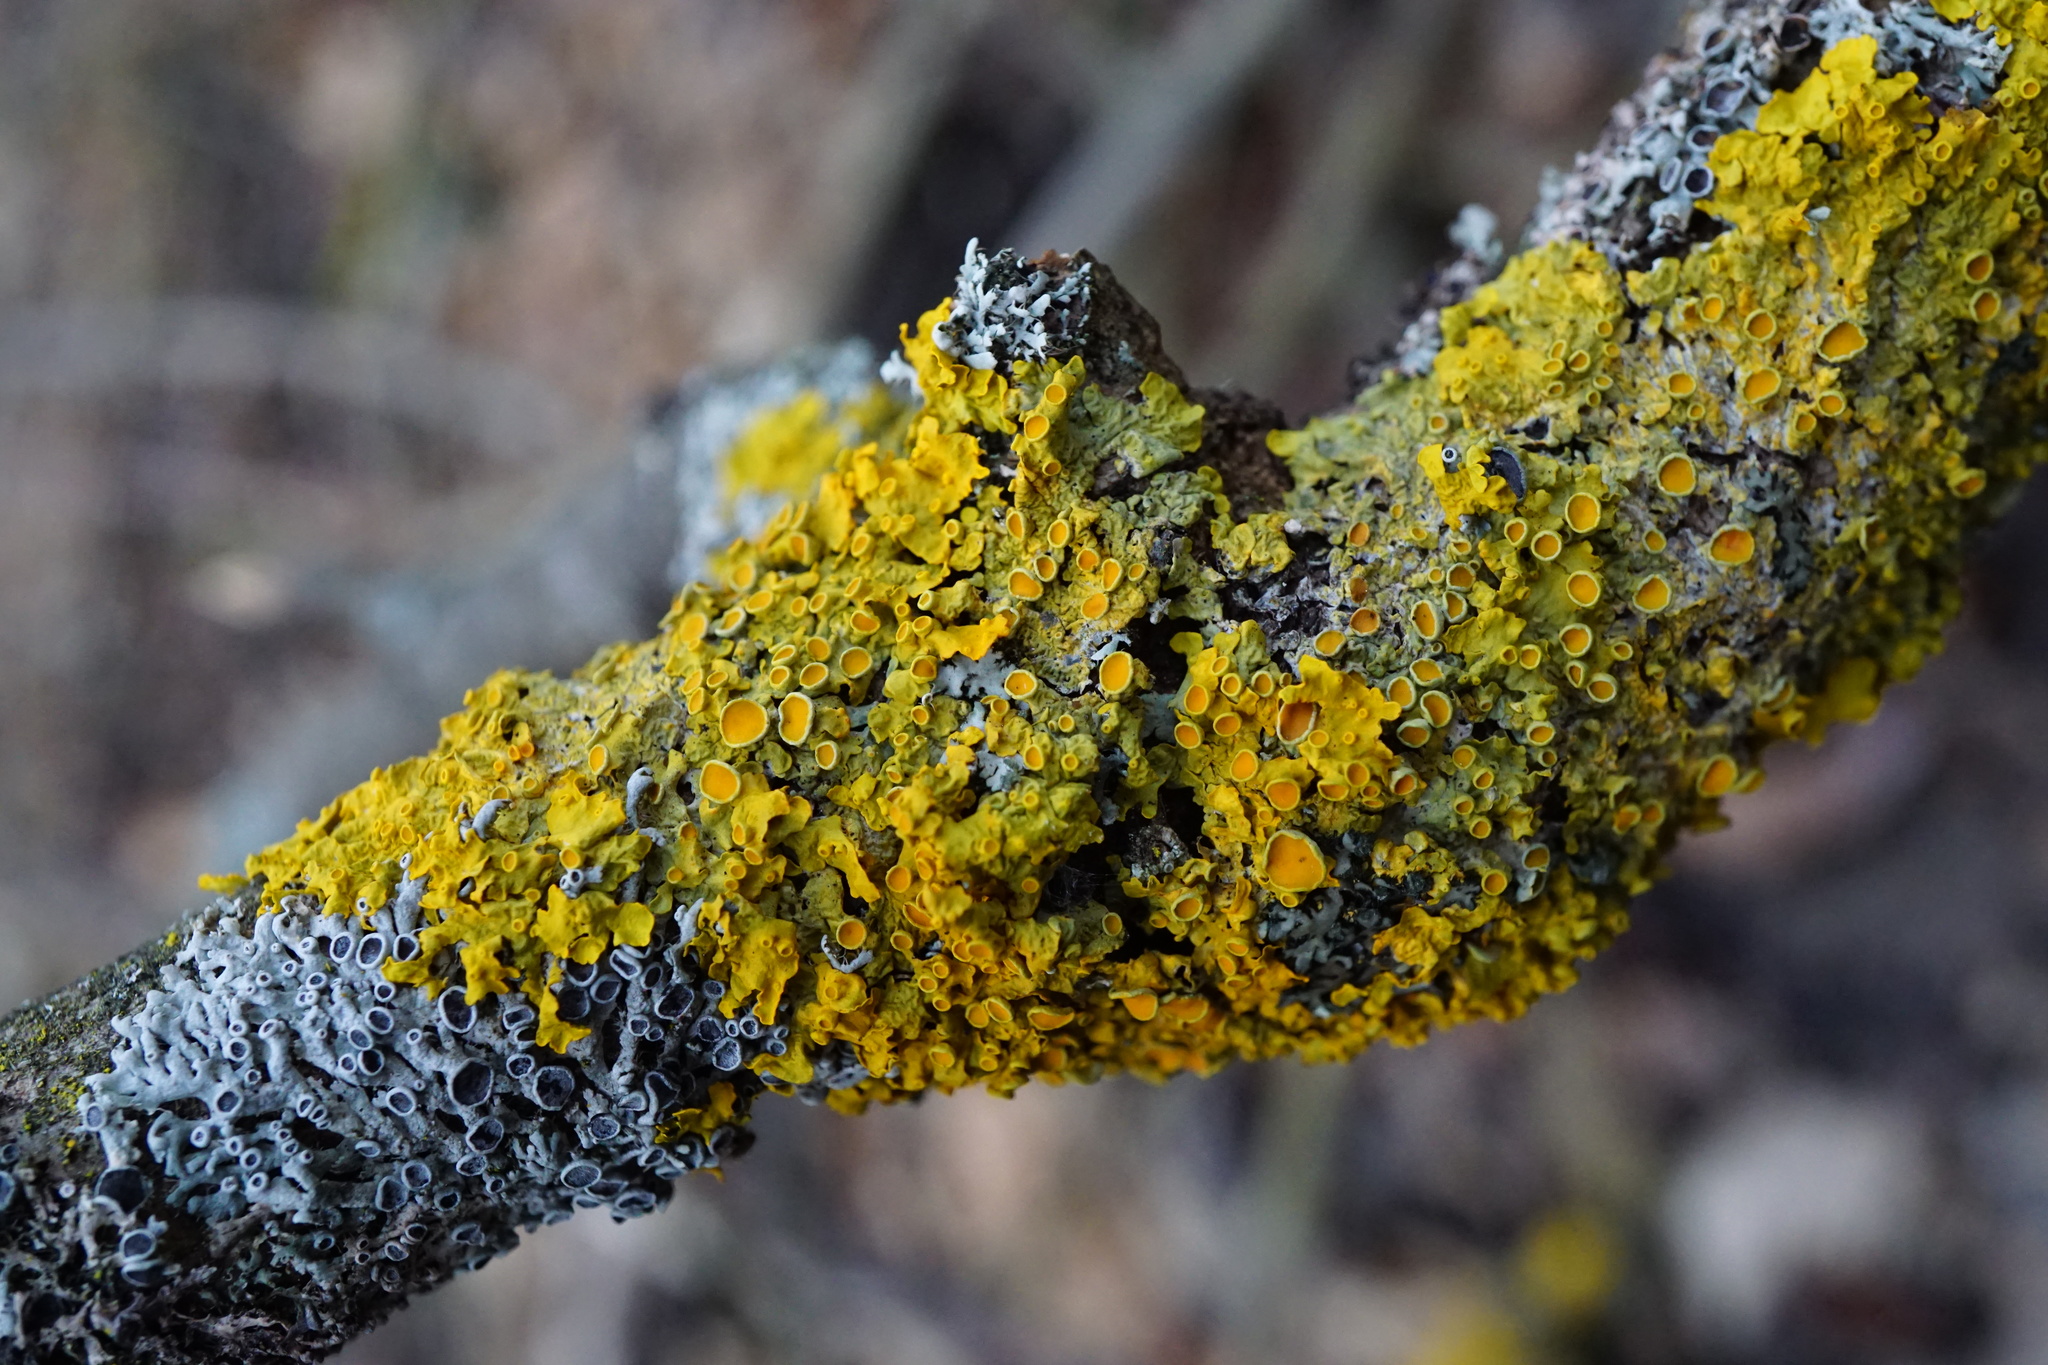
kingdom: Fungi
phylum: Ascomycota
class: Lecanoromycetes
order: Teloschistales
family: Teloschistaceae
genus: Xanthoria
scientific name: Xanthoria parietina
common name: Common orange lichen
